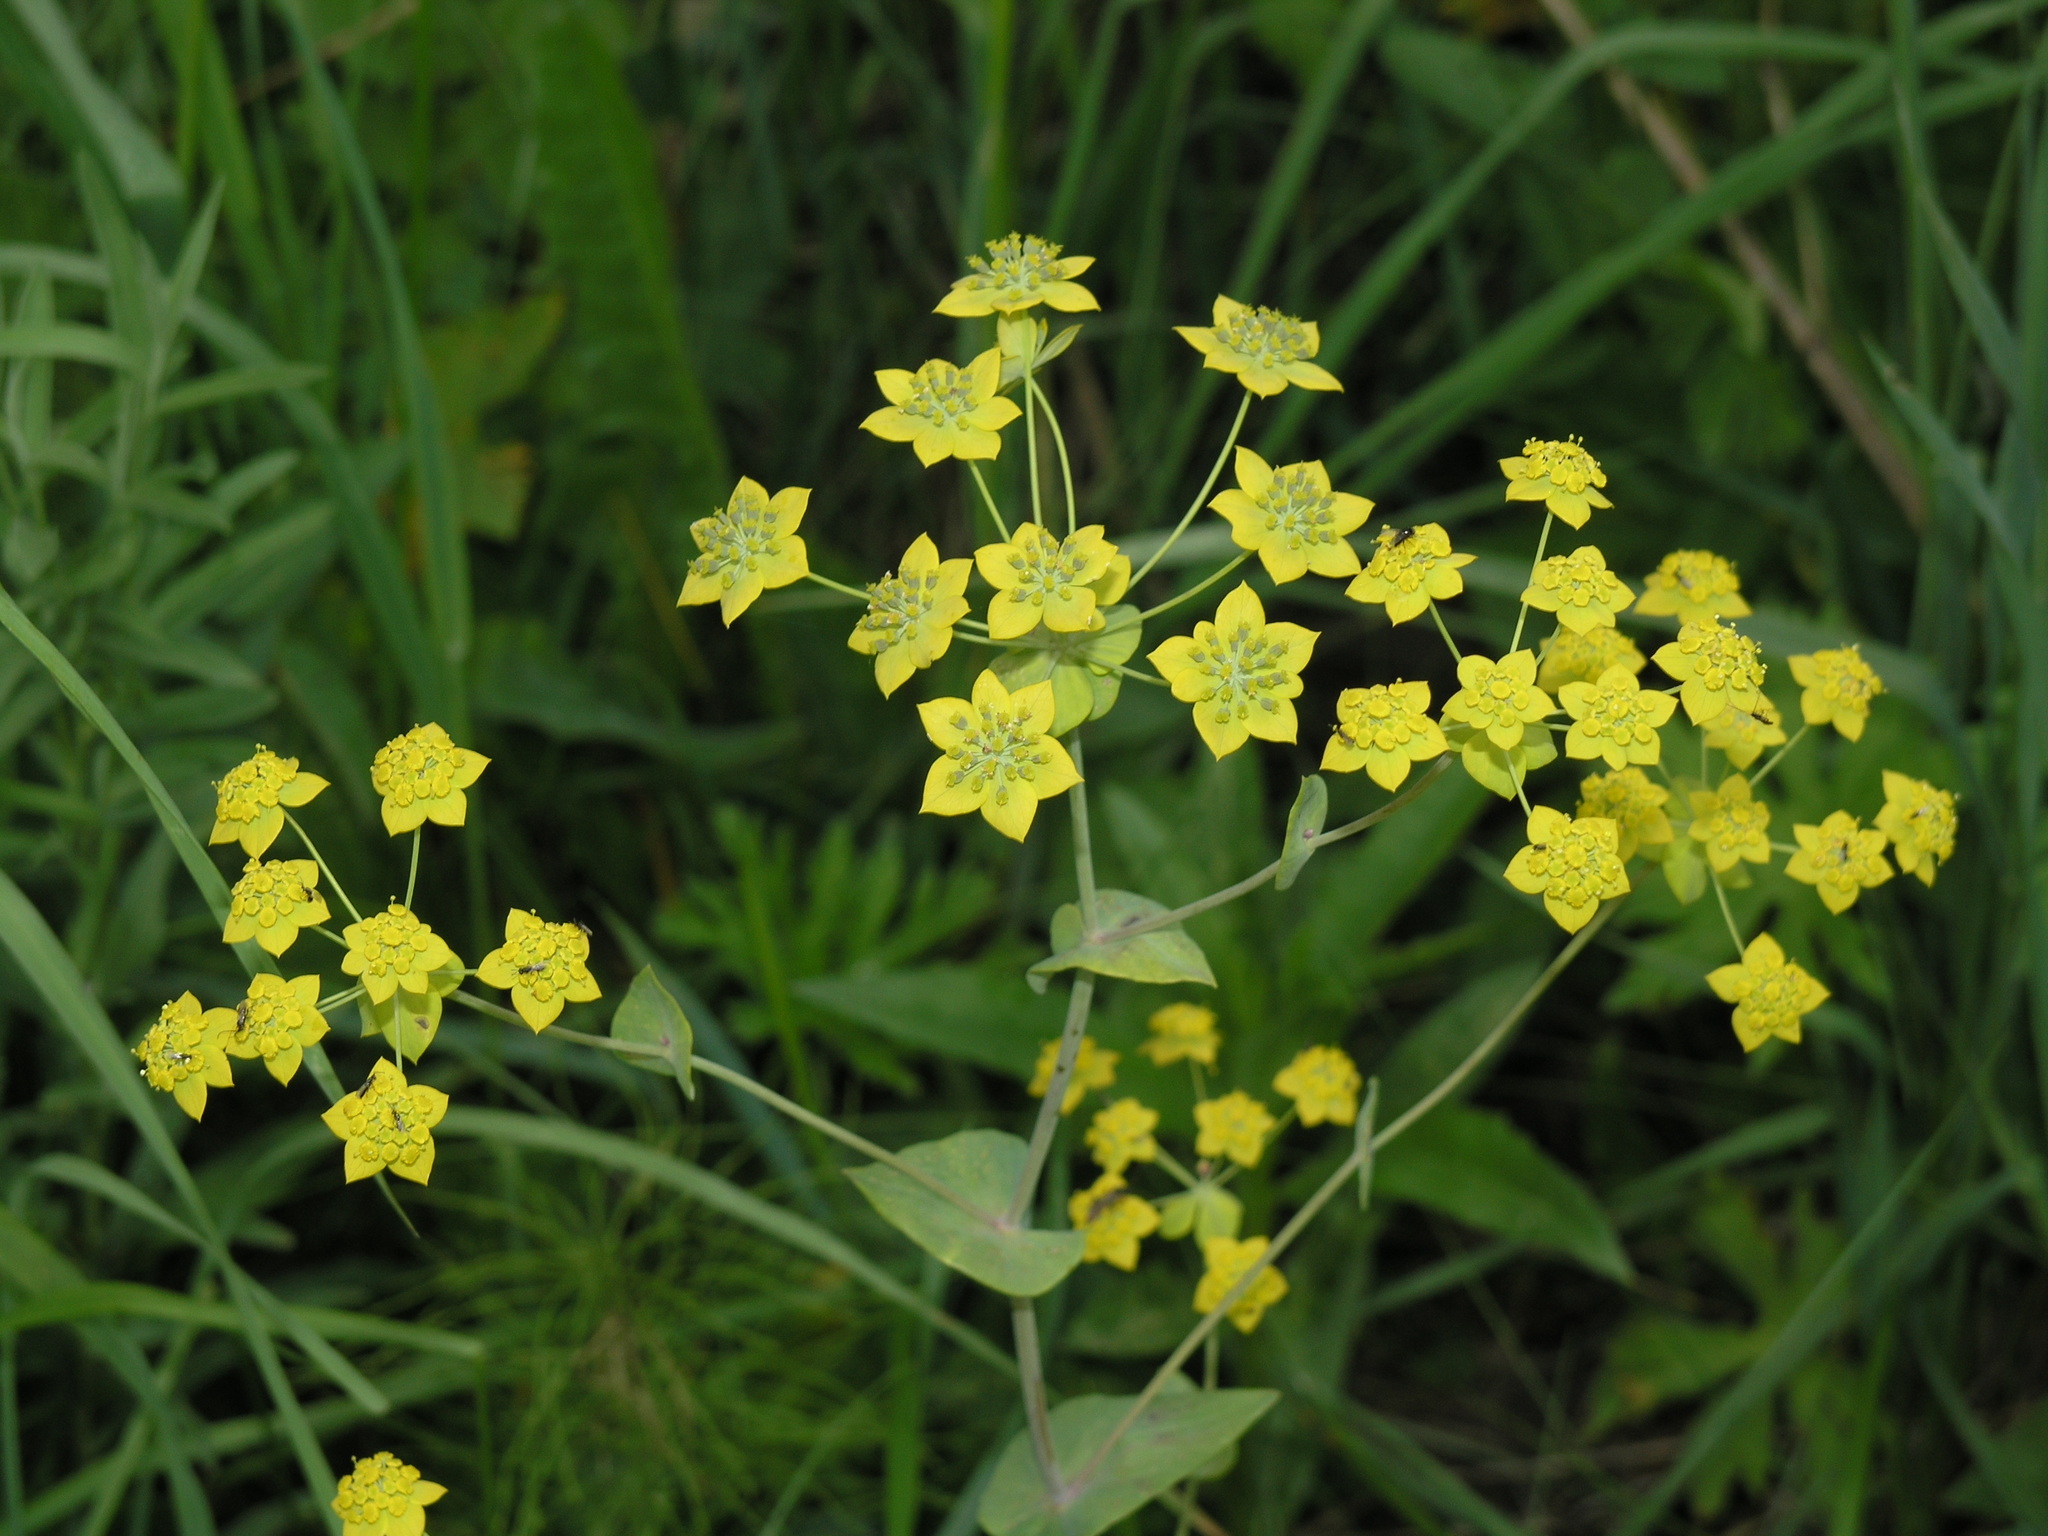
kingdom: Plantae
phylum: Tracheophyta
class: Magnoliopsida
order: Apiales
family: Apiaceae
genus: Bupleurum
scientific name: Bupleurum aureum
